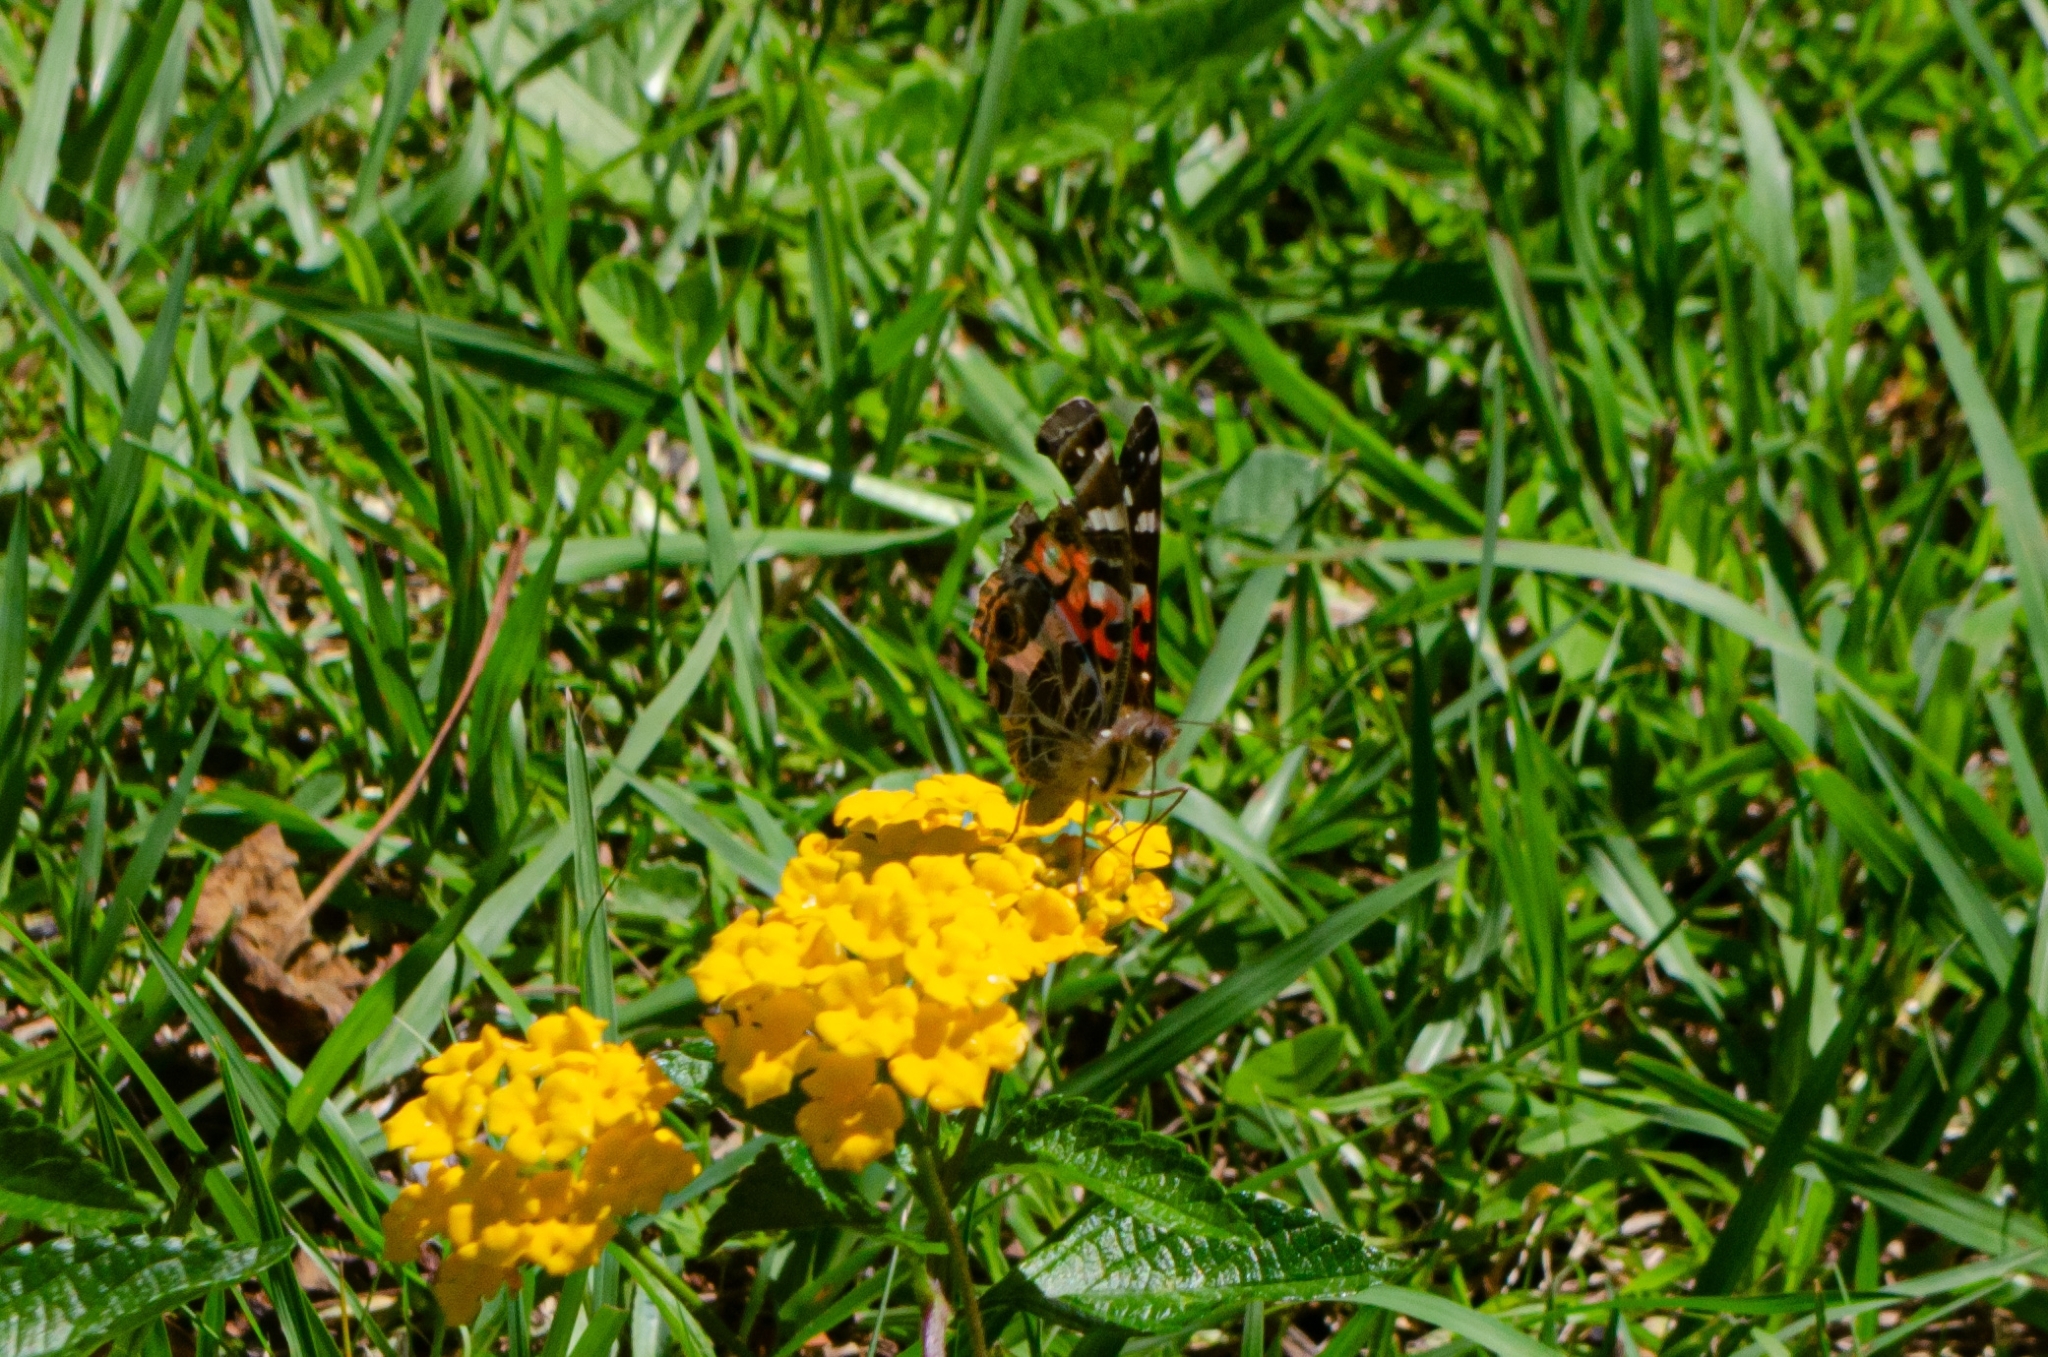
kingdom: Animalia
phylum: Arthropoda
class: Insecta
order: Lepidoptera
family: Nymphalidae
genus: Vanessa
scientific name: Vanessa braziliensis
